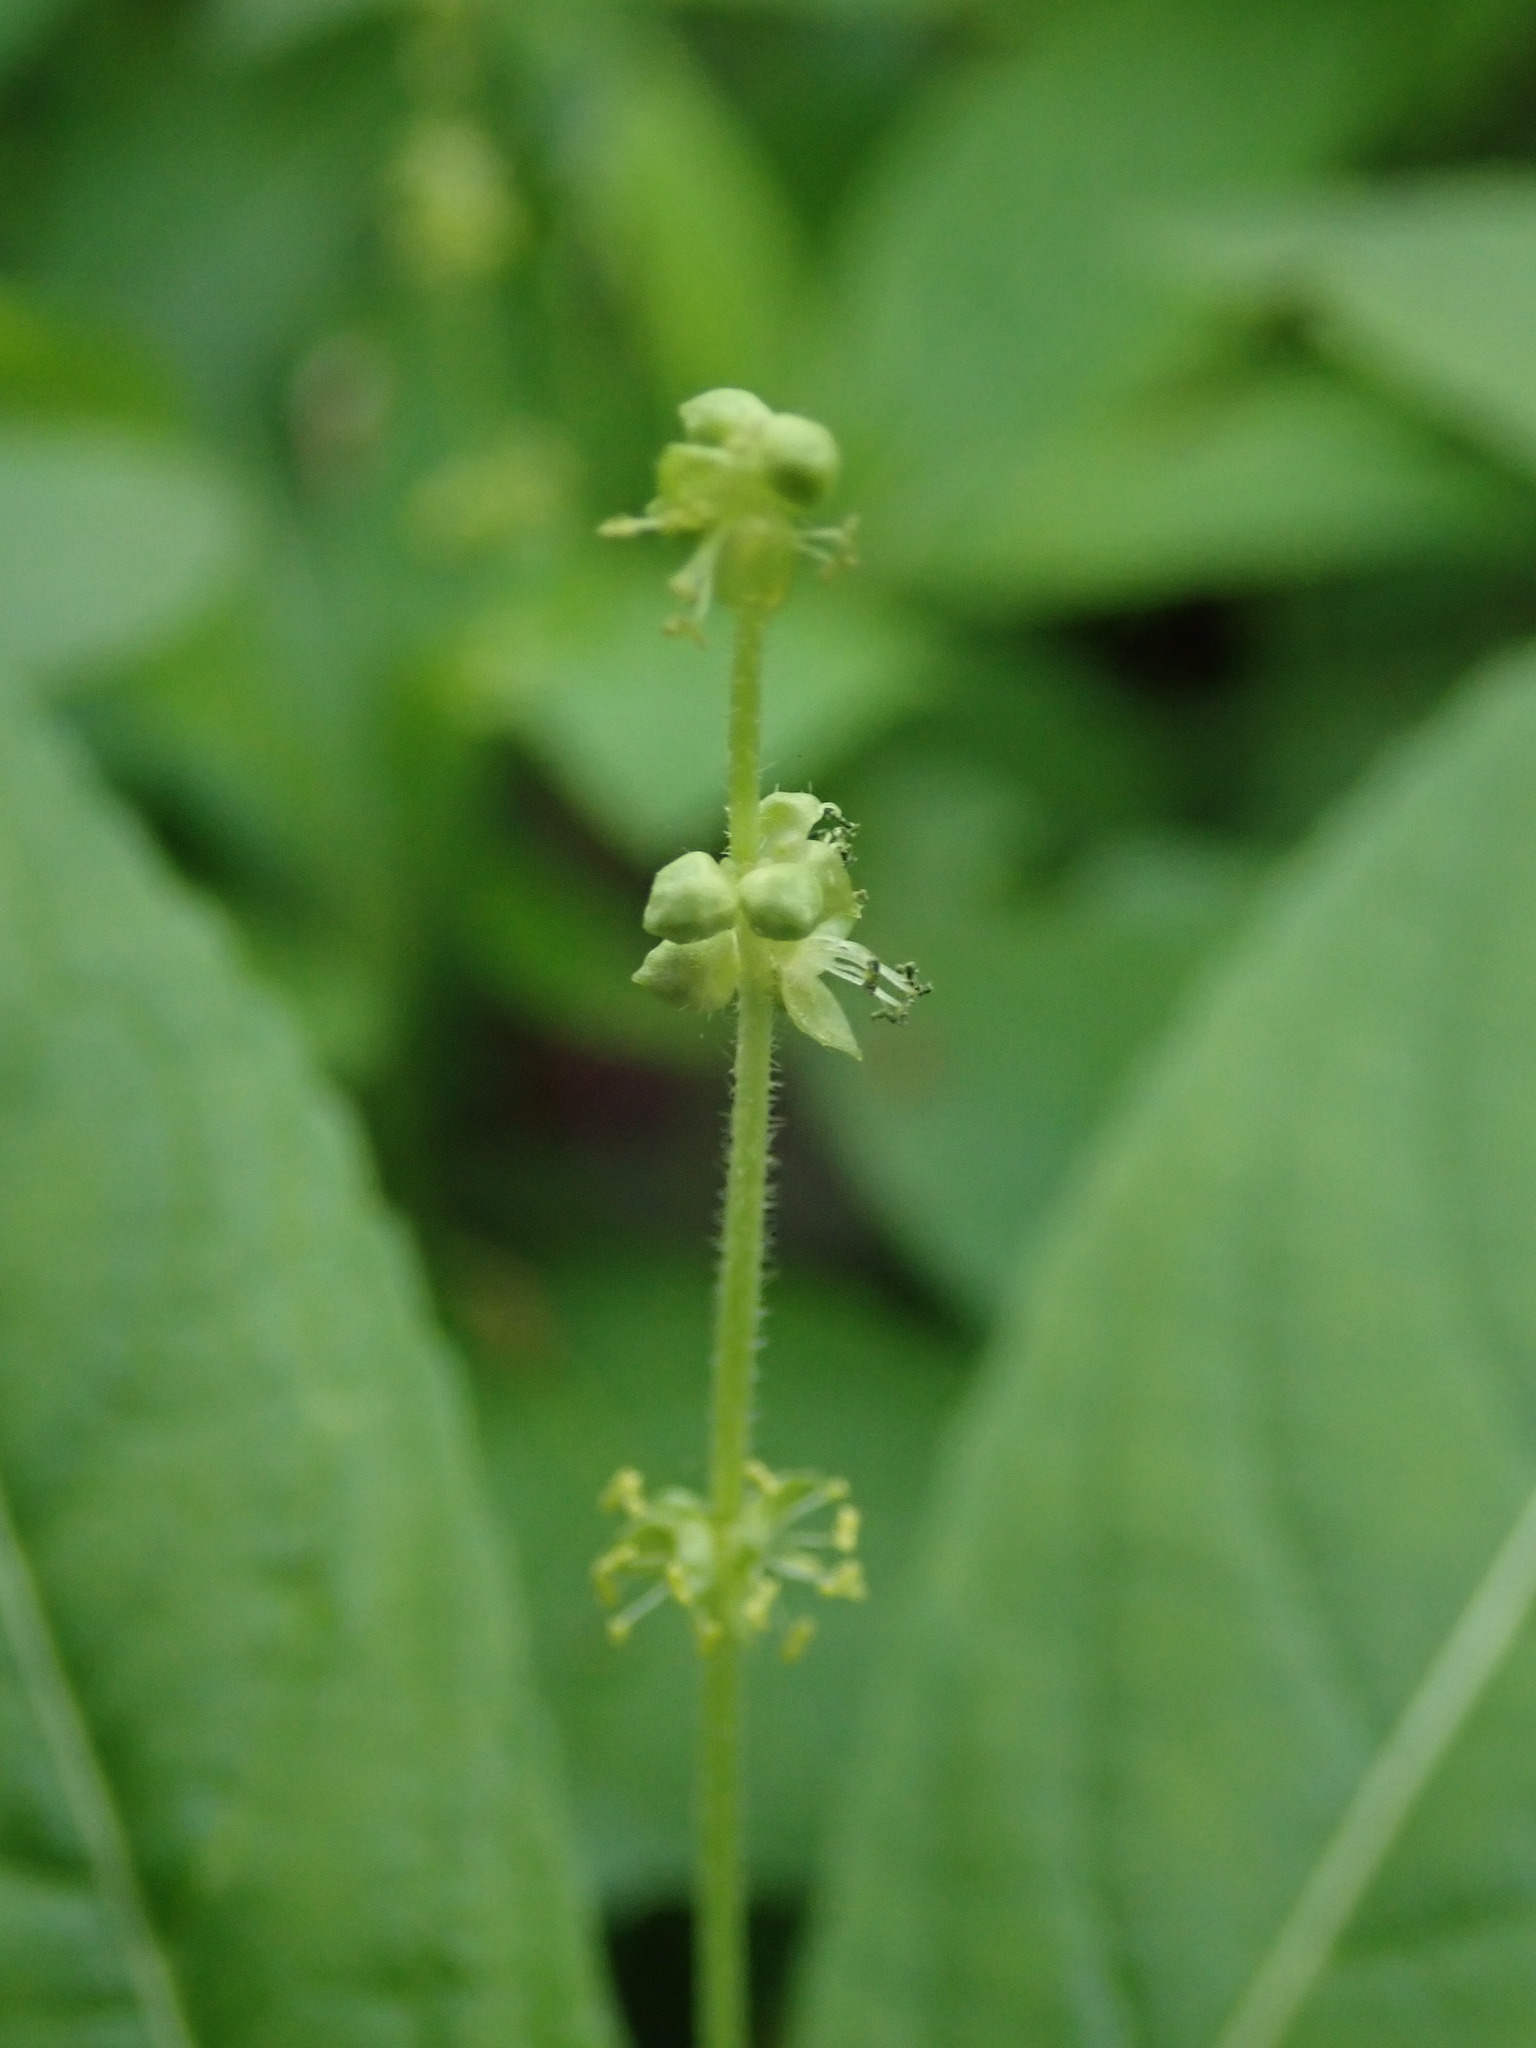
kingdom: Plantae
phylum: Tracheophyta
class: Magnoliopsida
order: Malpighiales
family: Euphorbiaceae
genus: Mercurialis
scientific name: Mercurialis perennis
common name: Dog mercury
